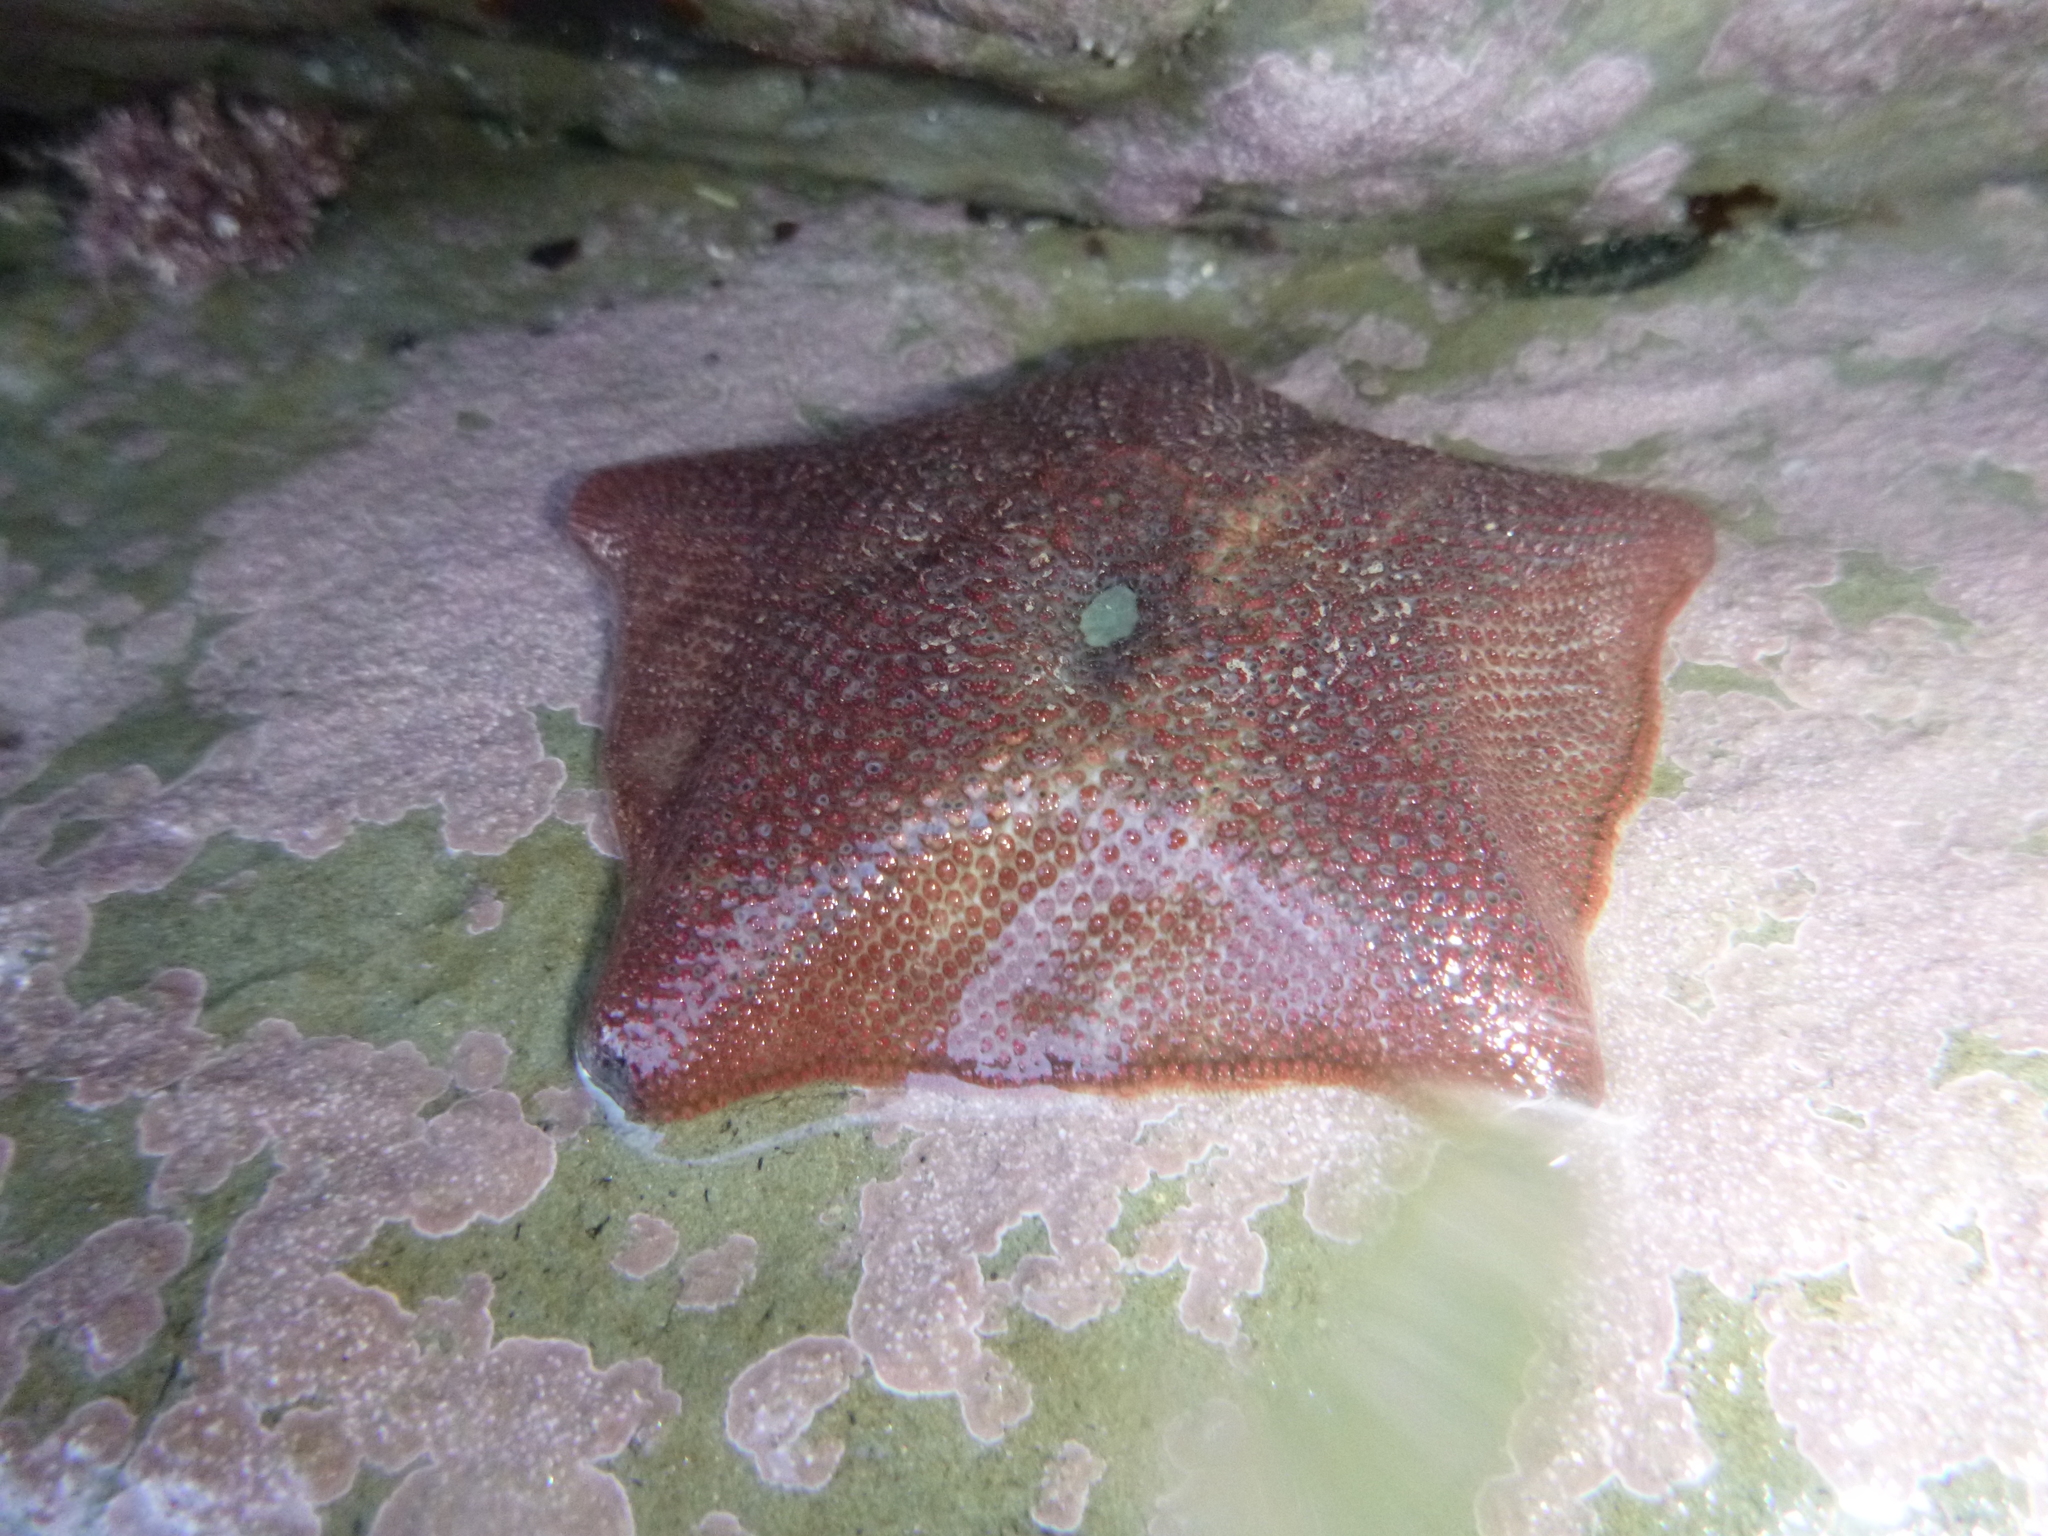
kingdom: Animalia
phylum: Echinodermata
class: Asteroidea
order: Valvatida
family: Asterinidae
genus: Patiriella
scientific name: Patiriella regularis
